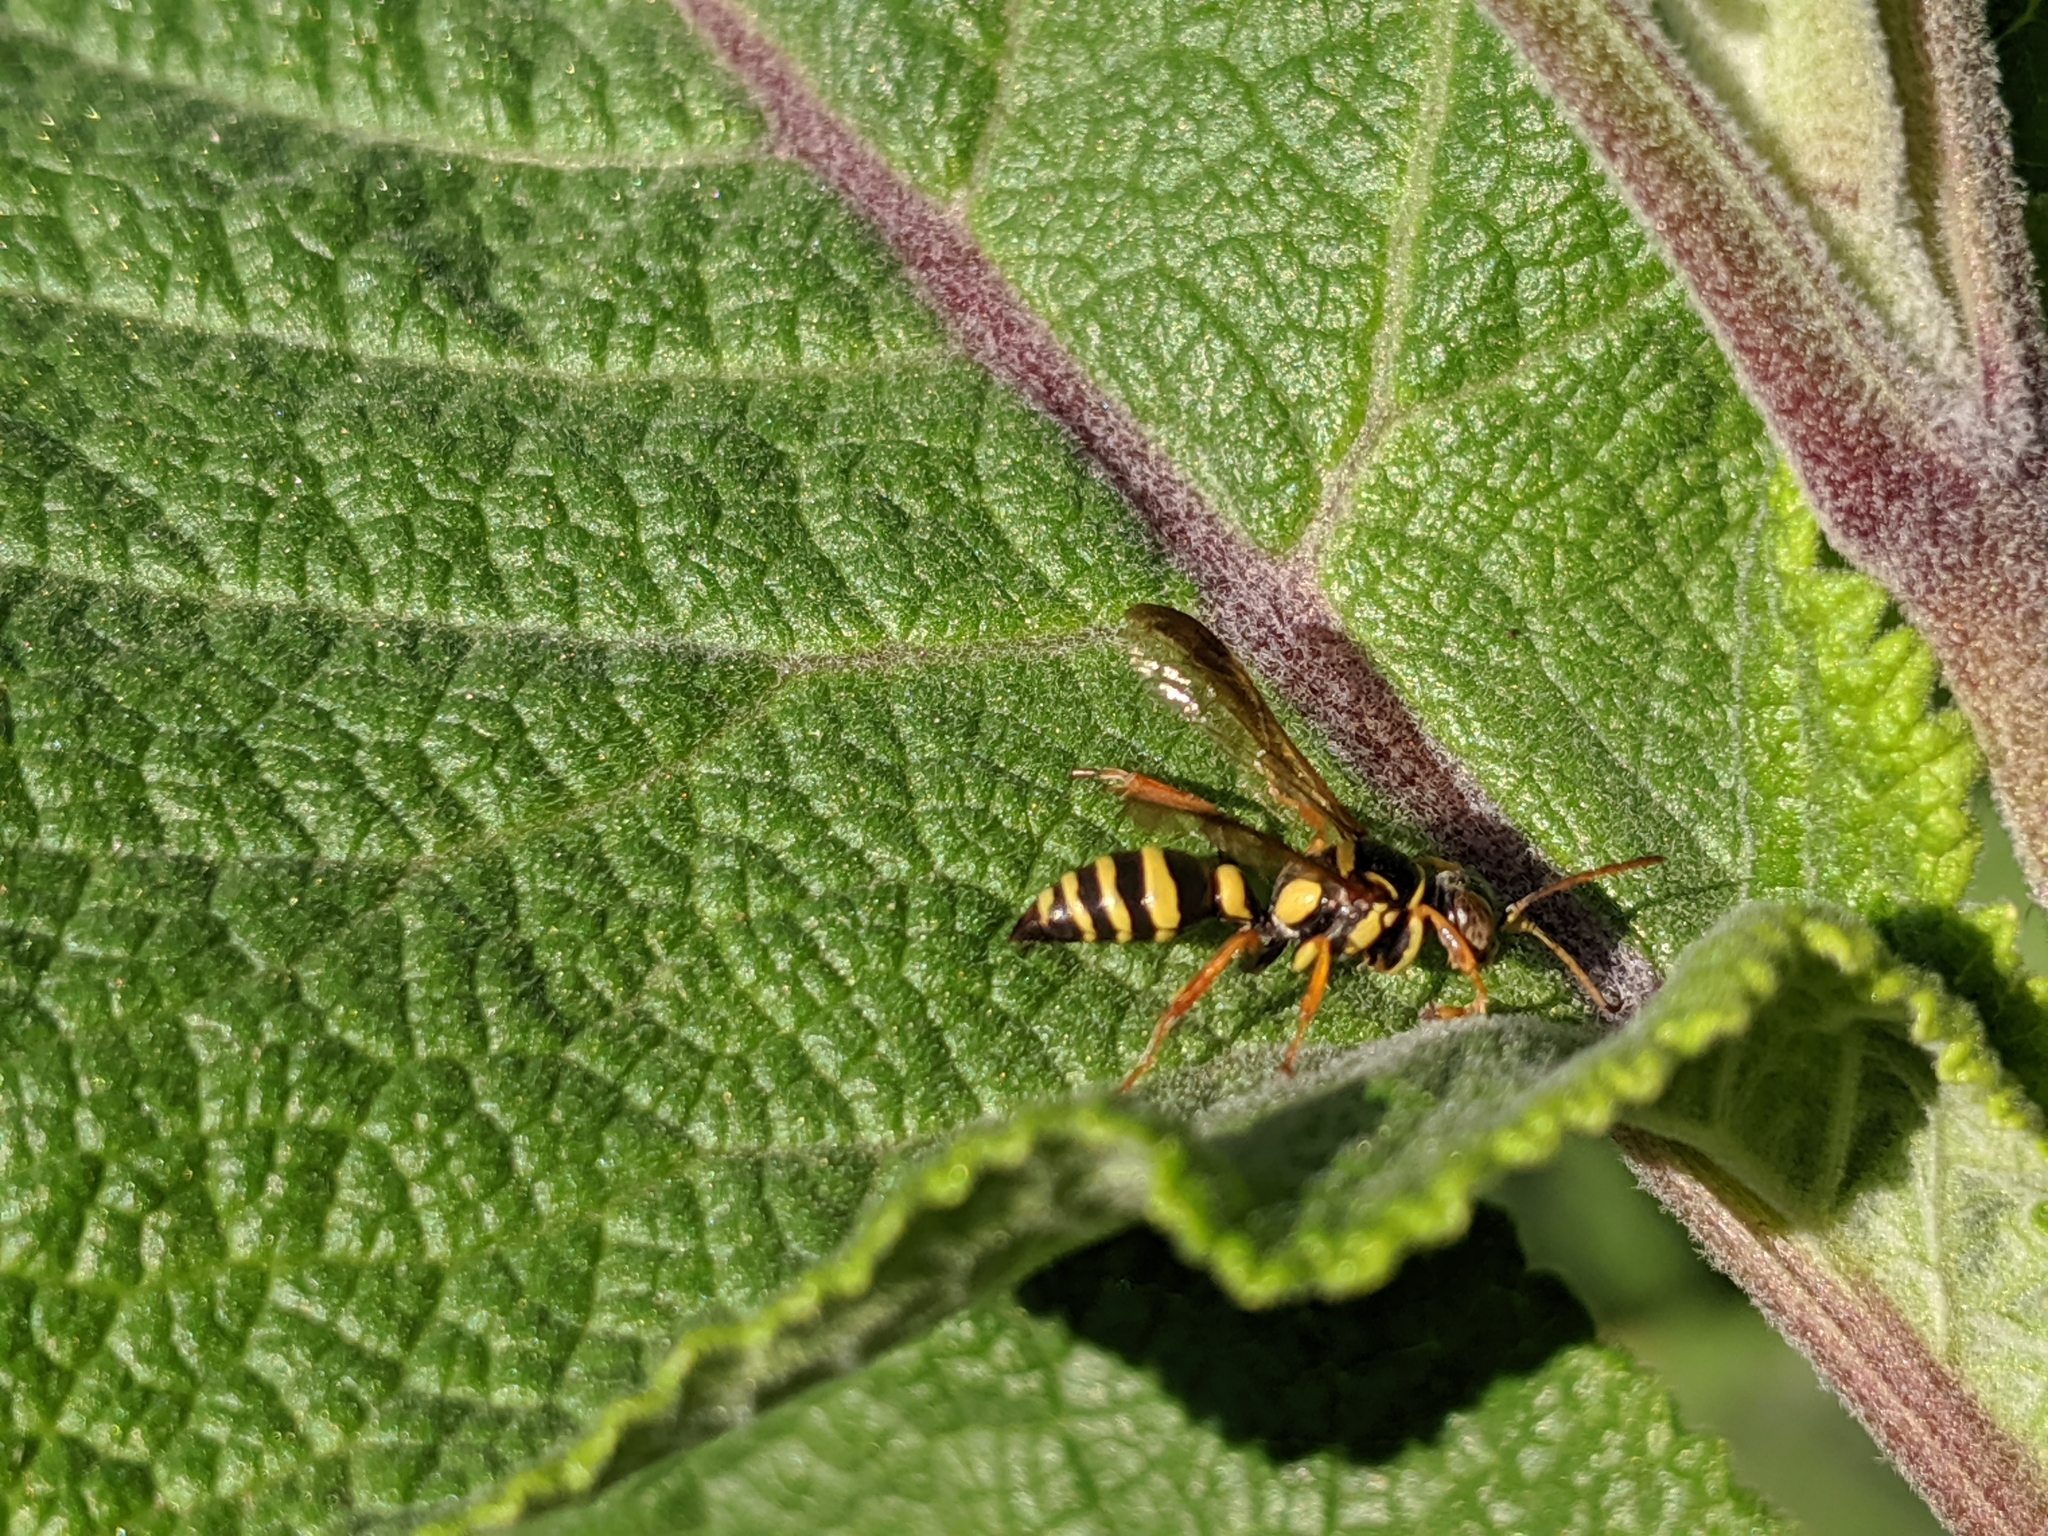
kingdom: Animalia
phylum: Arthropoda
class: Insecta
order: Hymenoptera
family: Crabronidae
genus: Psammaletes
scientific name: Psammaletes mexicanus
